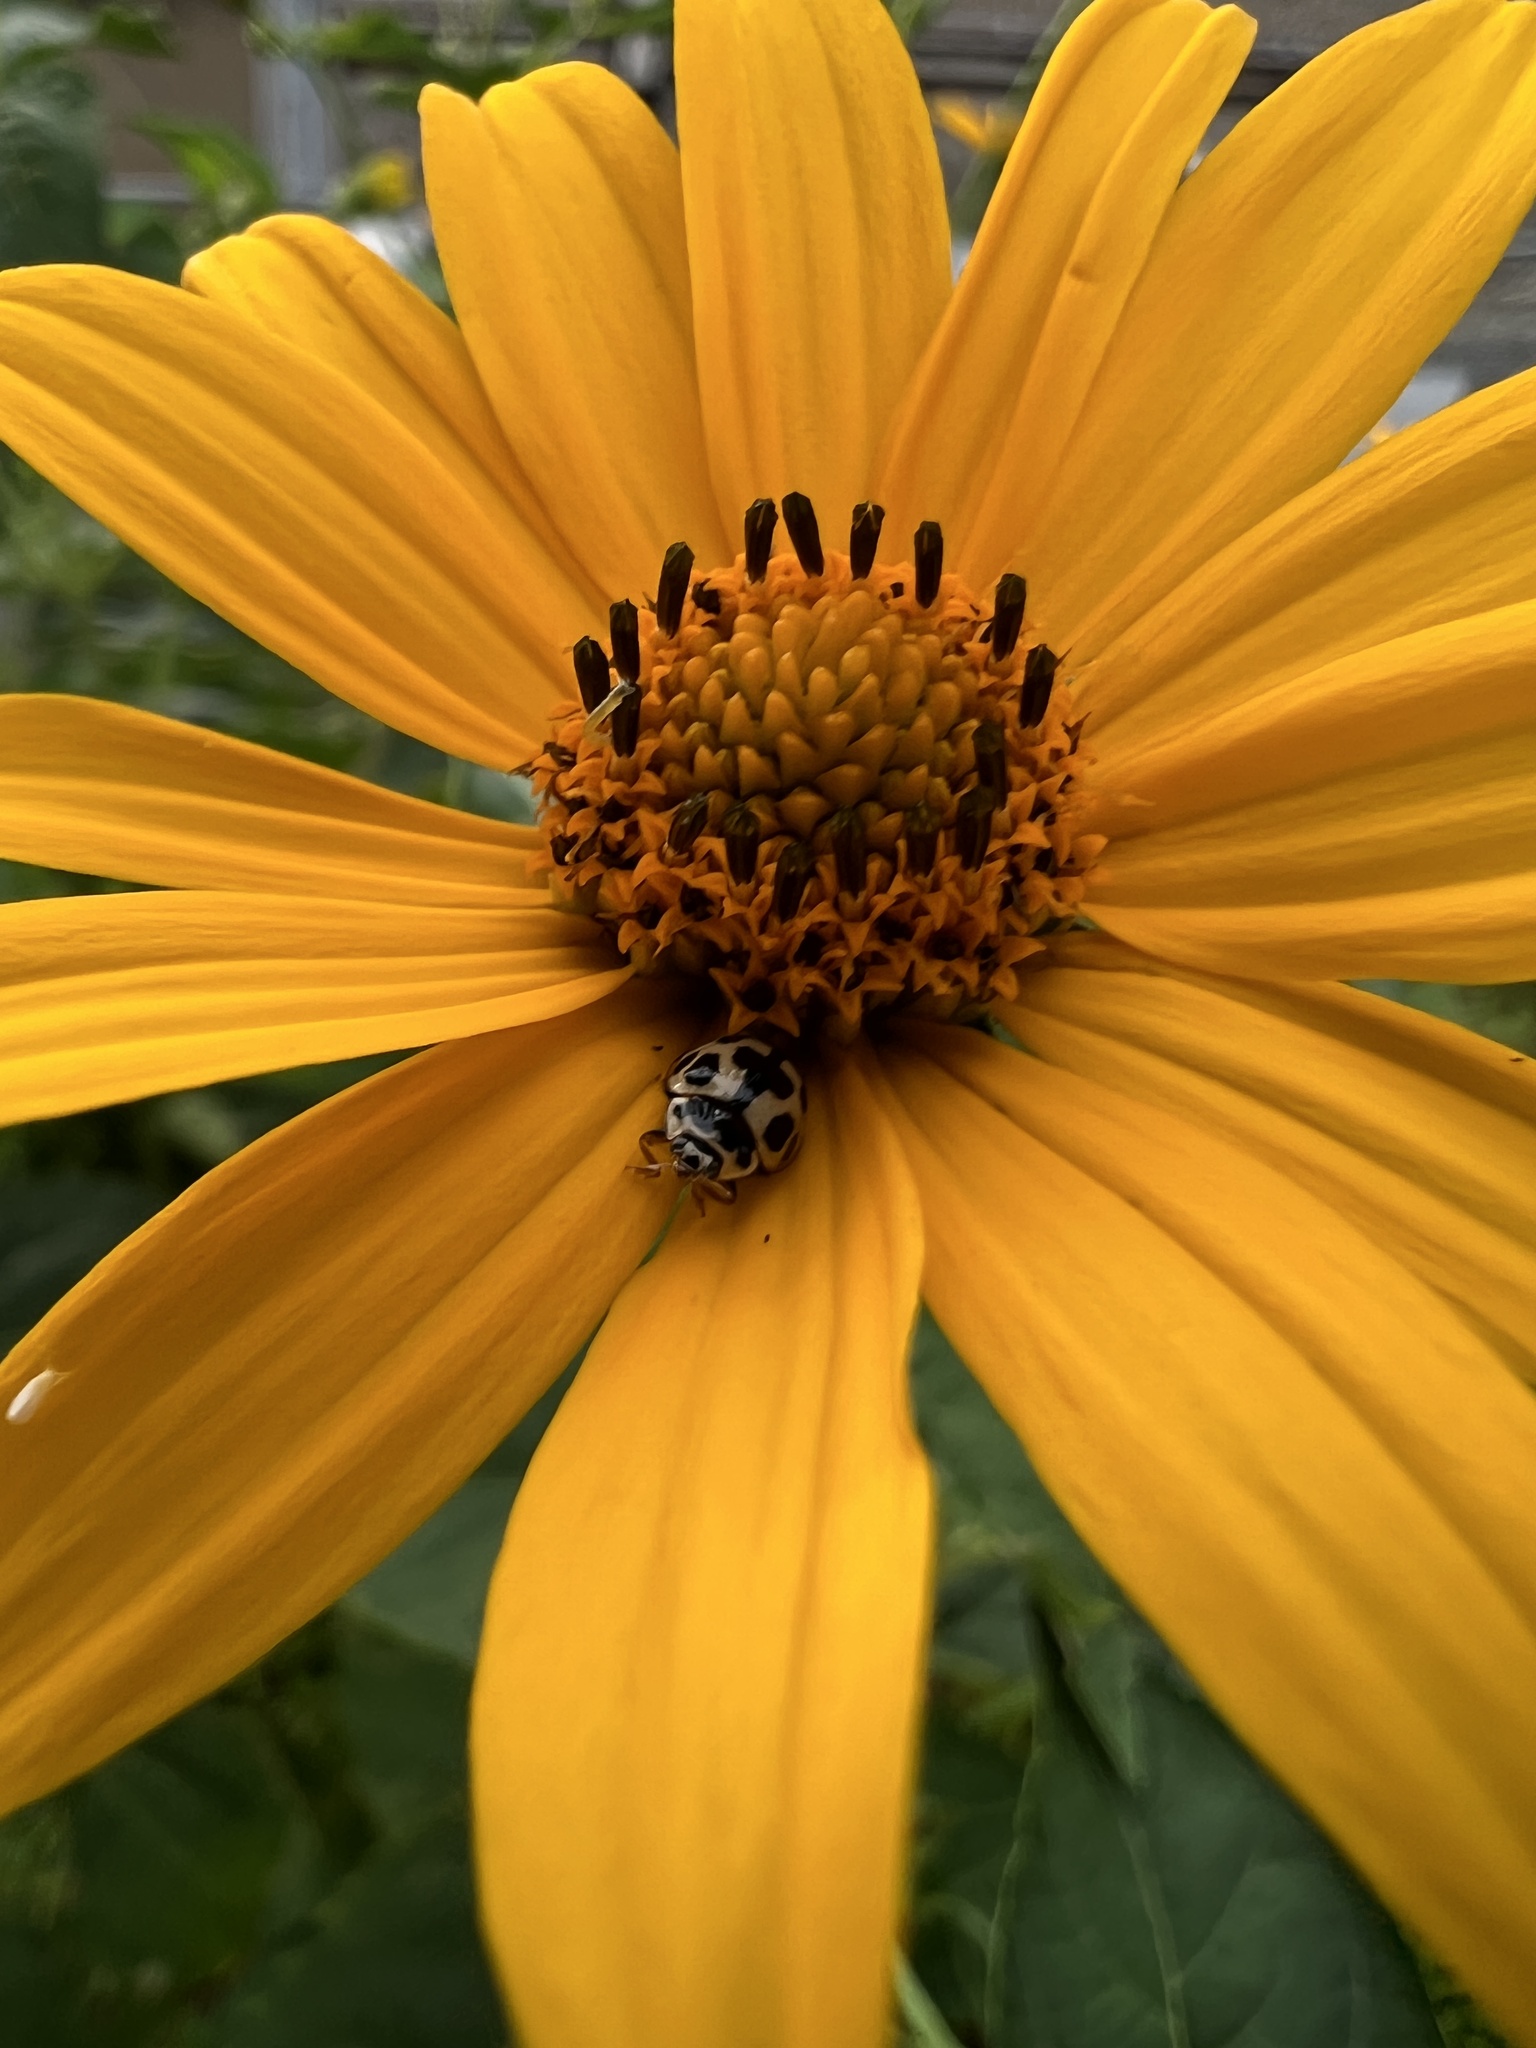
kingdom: Animalia
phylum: Arthropoda
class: Insecta
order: Coleoptera
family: Coccinellidae
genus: Propylaea
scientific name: Propylaea quatuordecimpunctata
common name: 14-spotted ladybird beetle
